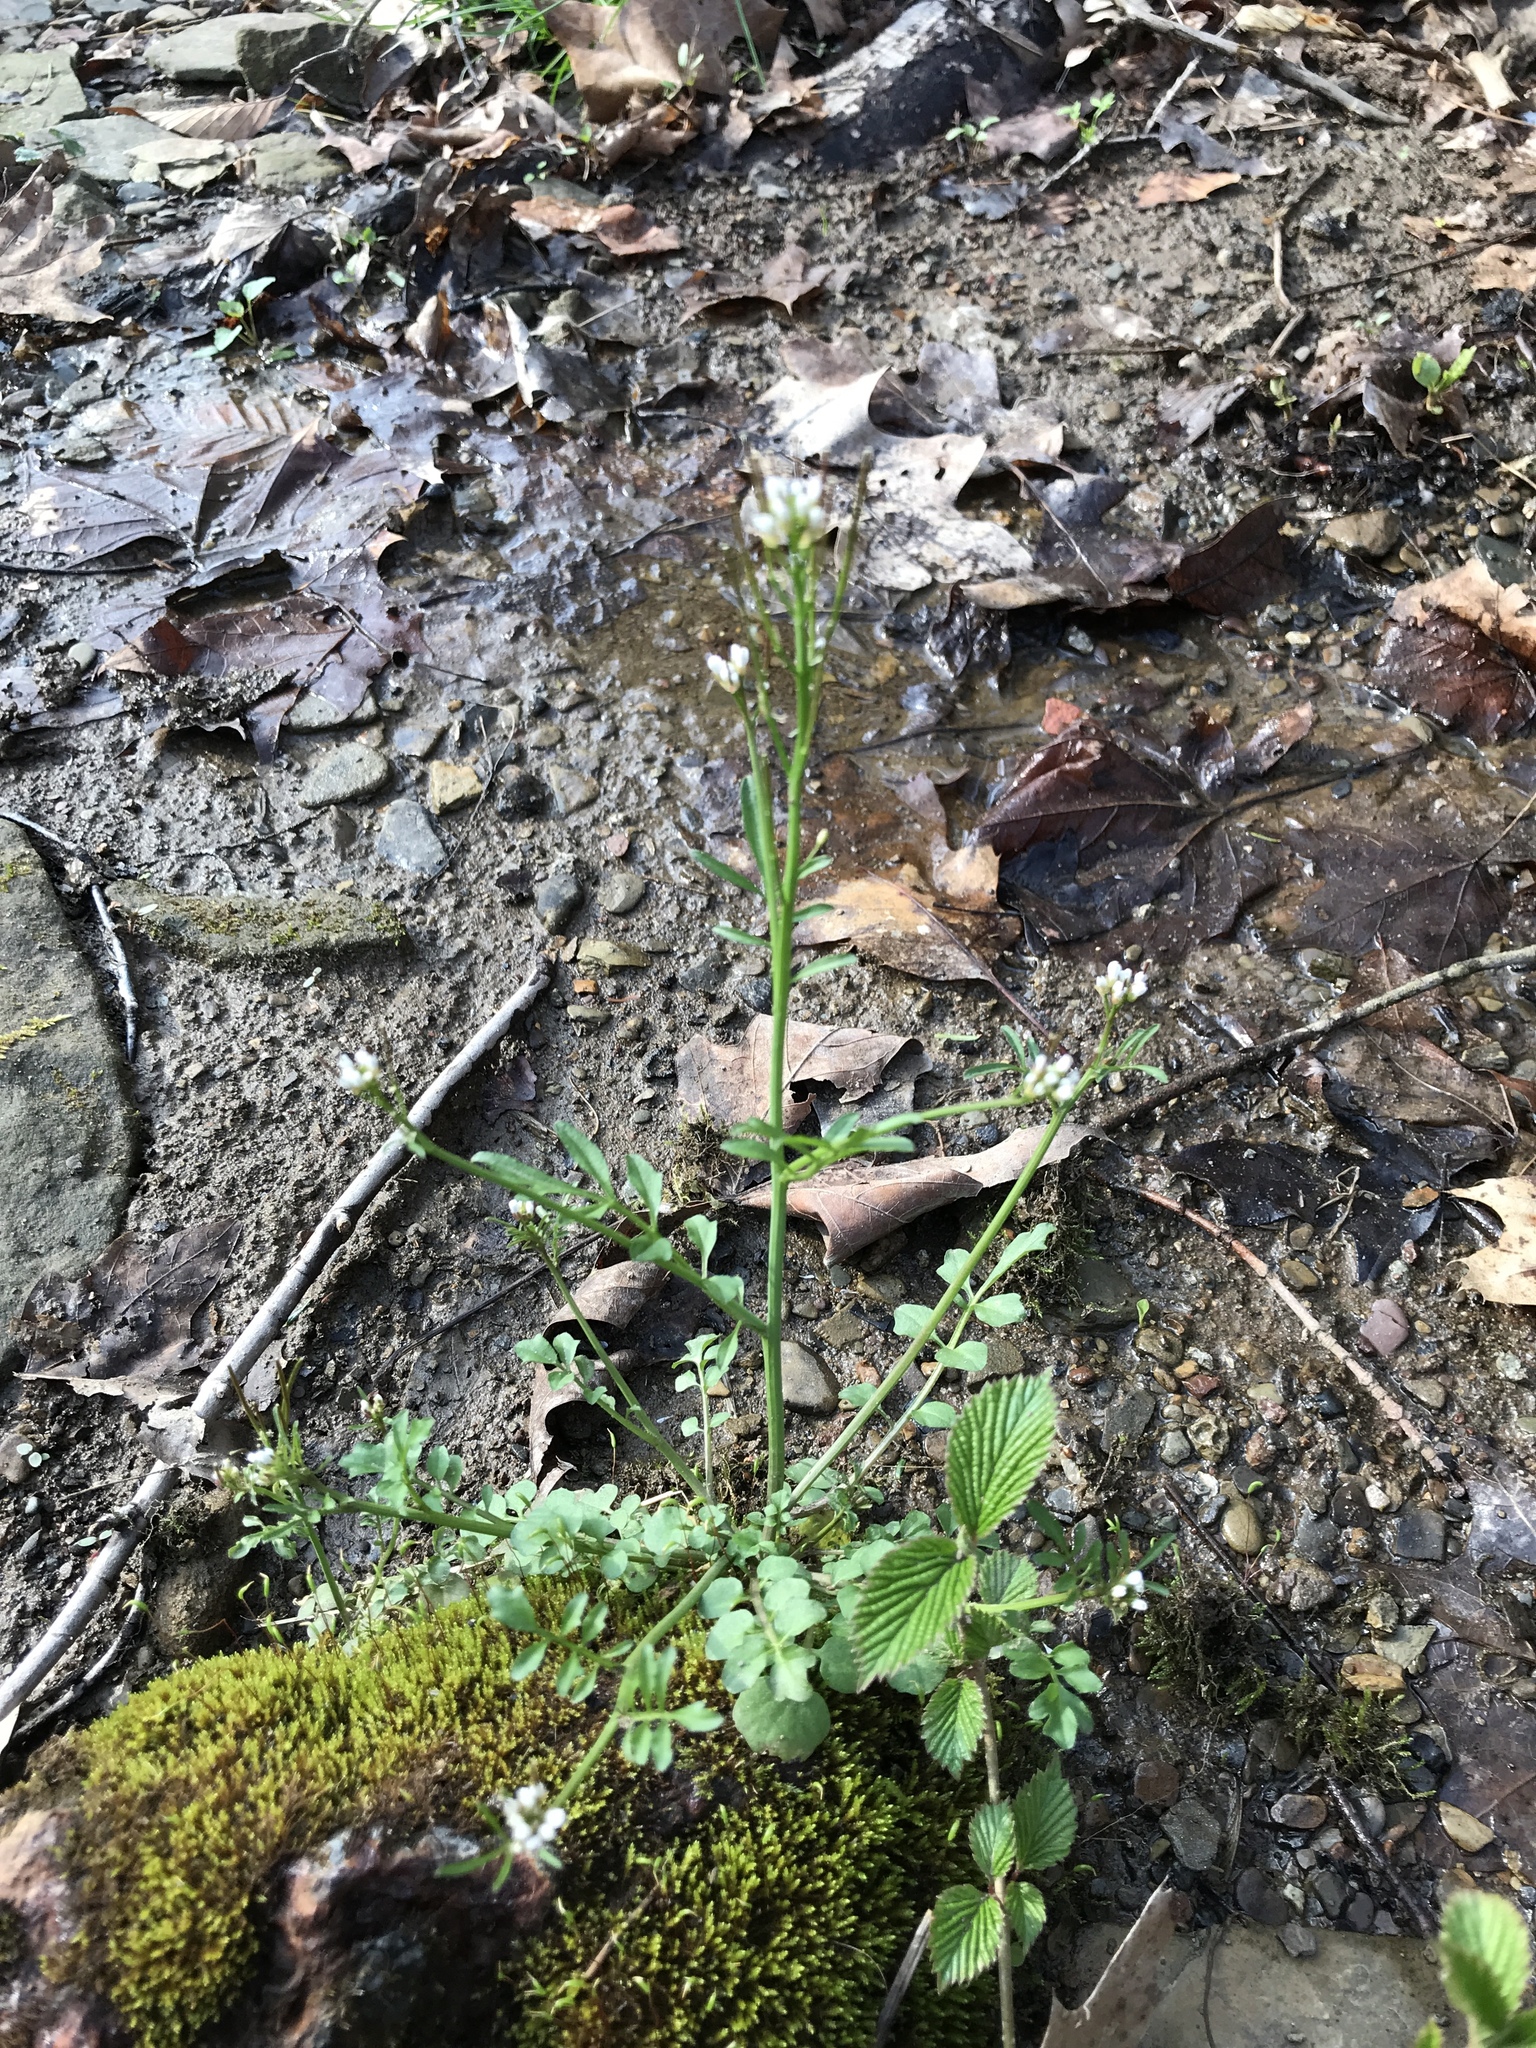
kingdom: Plantae
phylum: Tracheophyta
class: Magnoliopsida
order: Brassicales
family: Brassicaceae
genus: Cardamine
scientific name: Cardamine hirsuta
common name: Hairy bittercress
